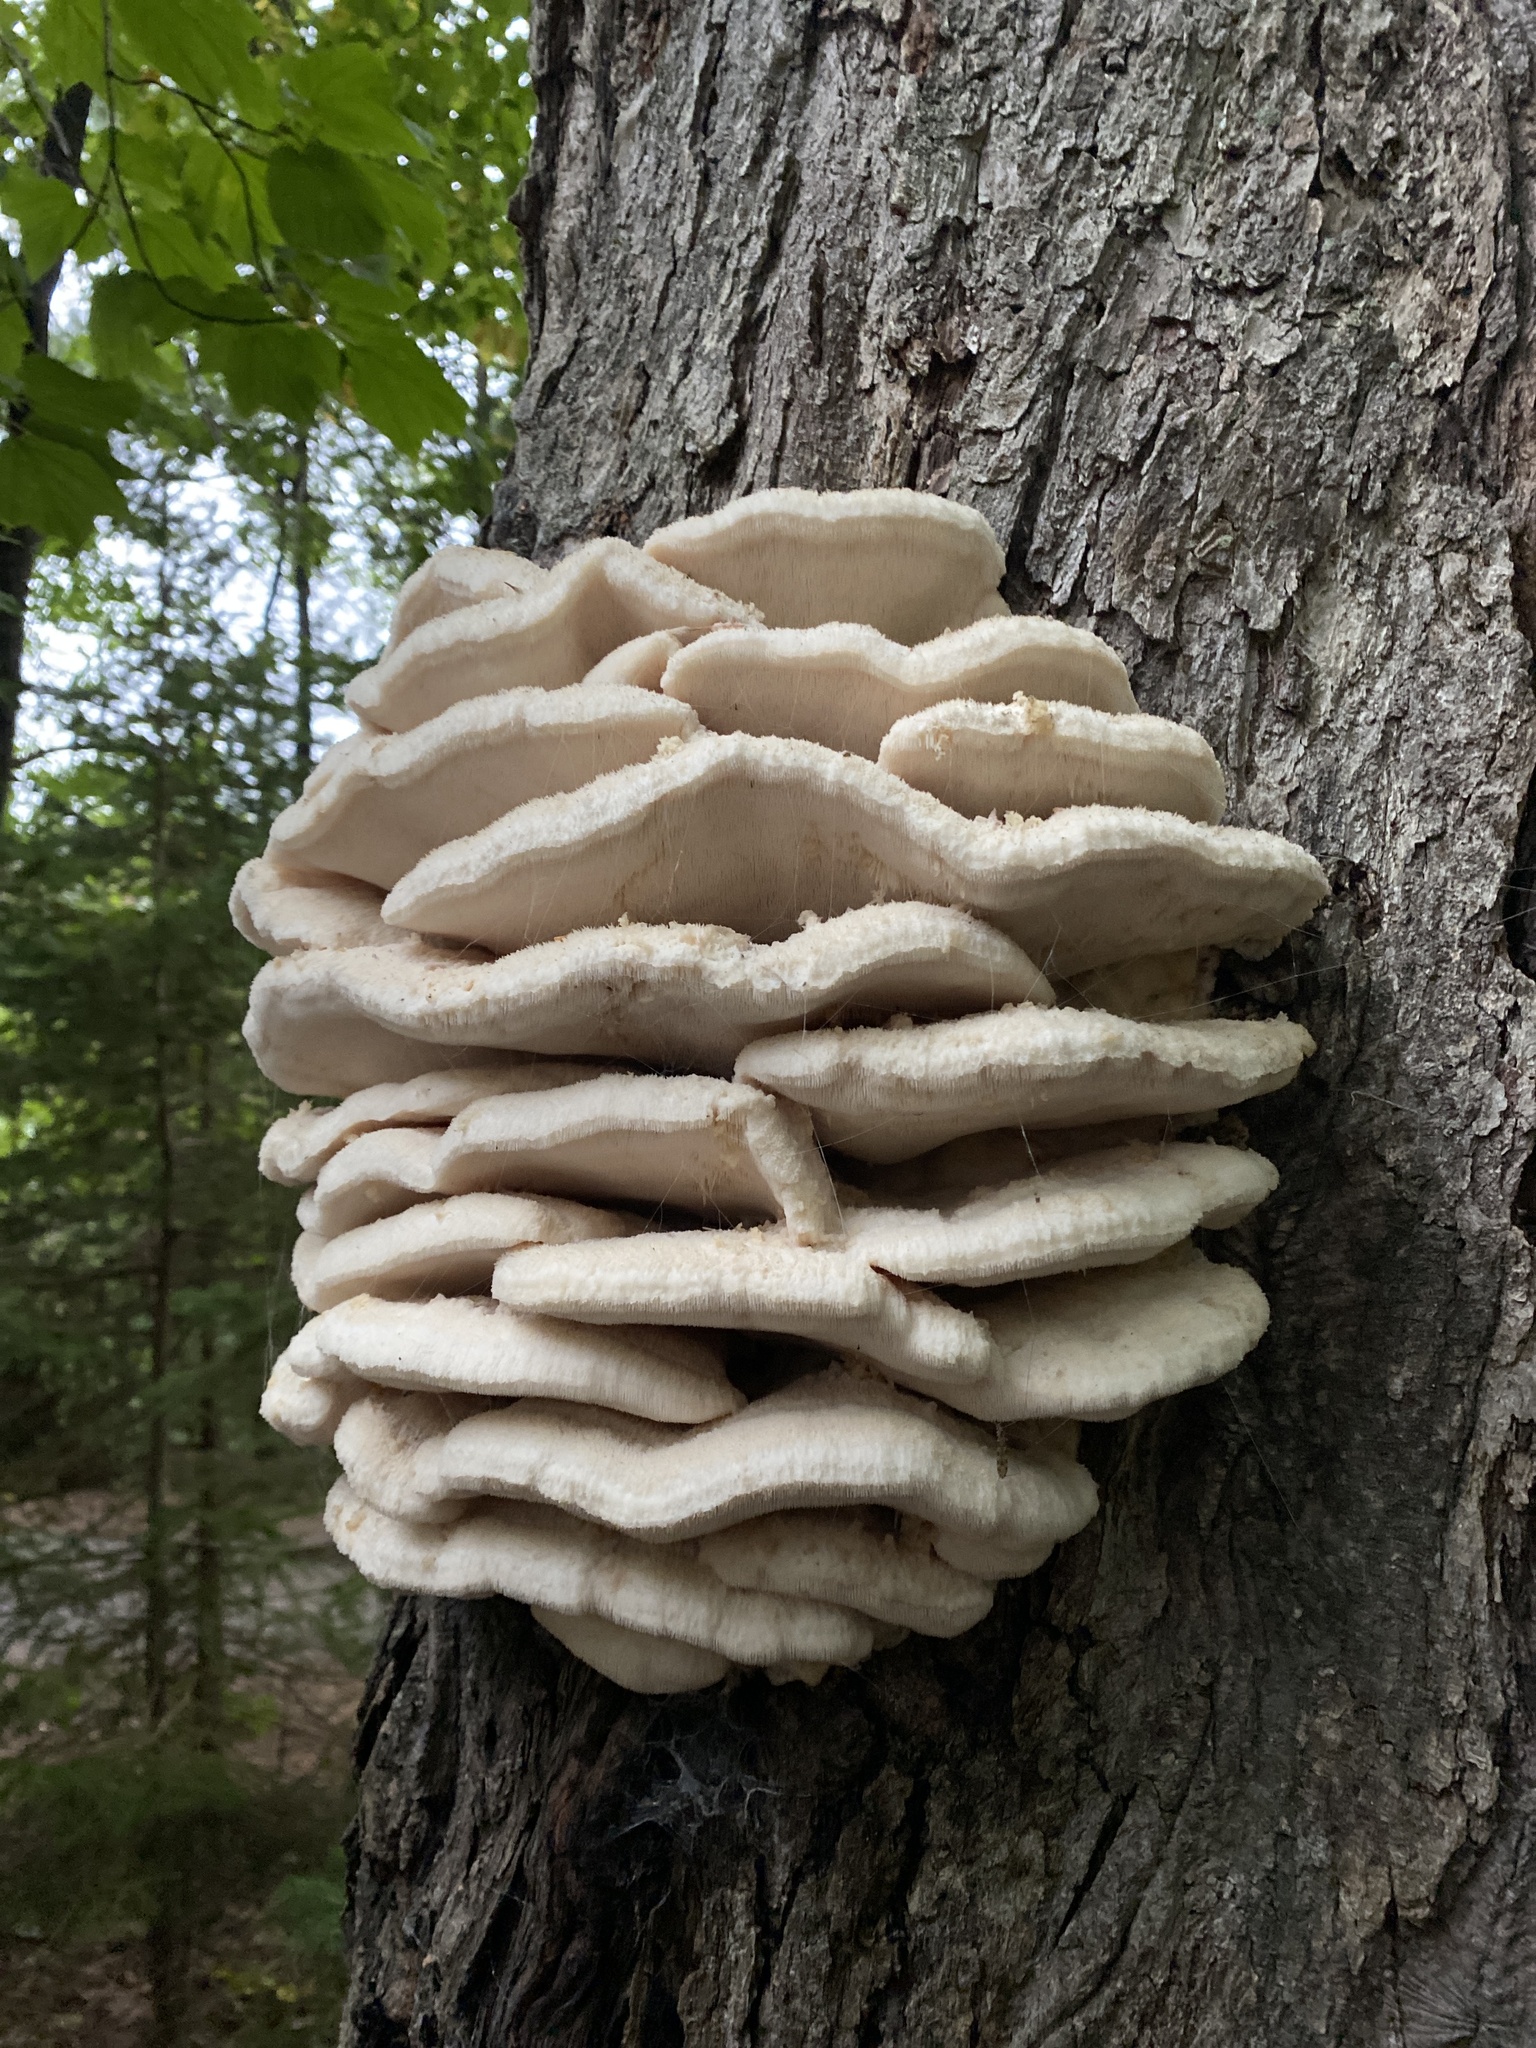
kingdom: Fungi
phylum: Basidiomycota
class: Agaricomycetes
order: Polyporales
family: Meruliaceae
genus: Climacodon
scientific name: Climacodon septentrionalis
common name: Northern tooth
